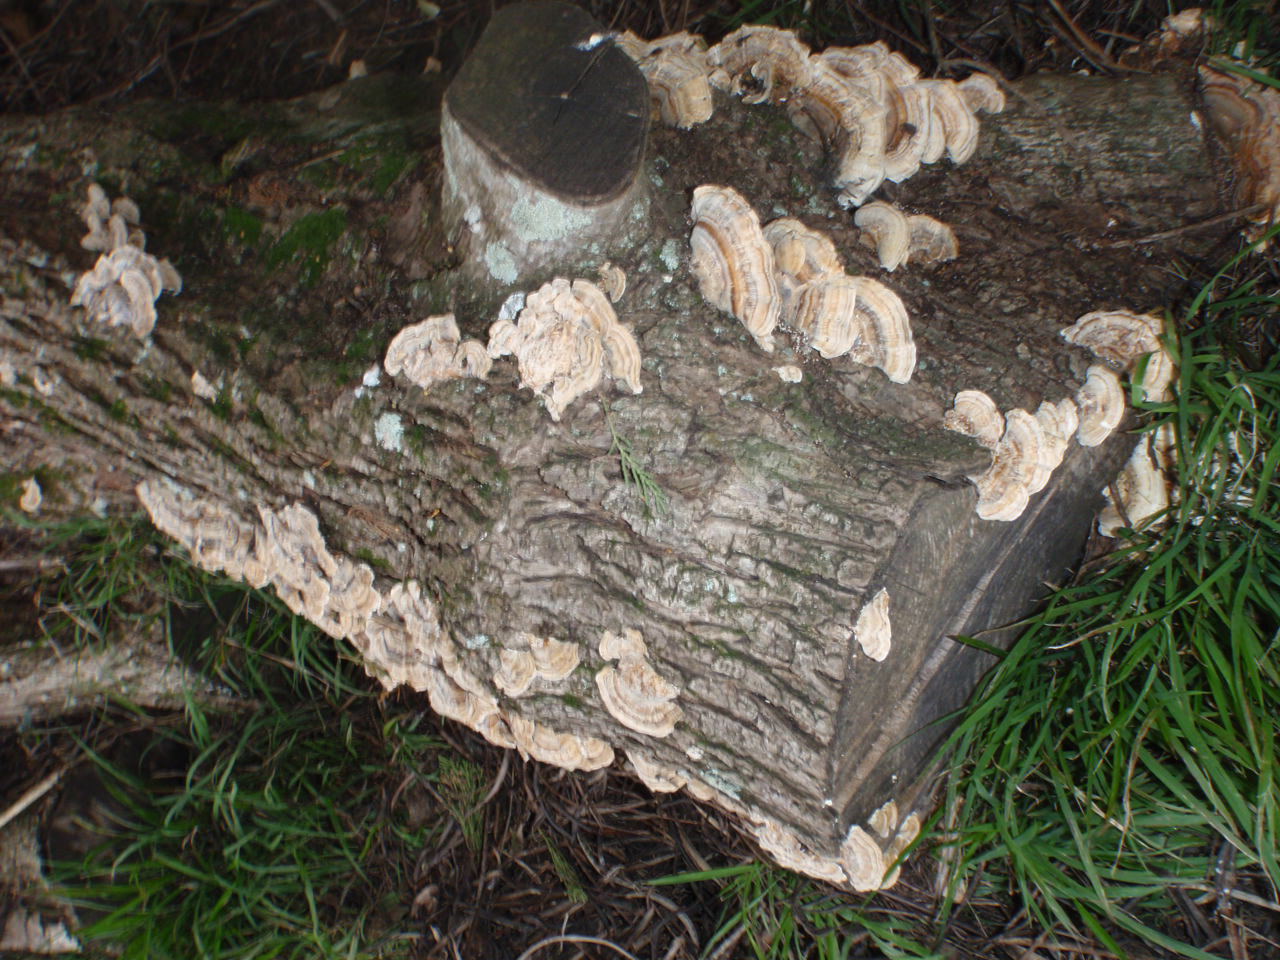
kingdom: Fungi
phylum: Basidiomycota
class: Agaricomycetes
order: Polyporales
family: Polyporaceae
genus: Trametes
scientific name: Trametes versicolor
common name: Turkeytail
